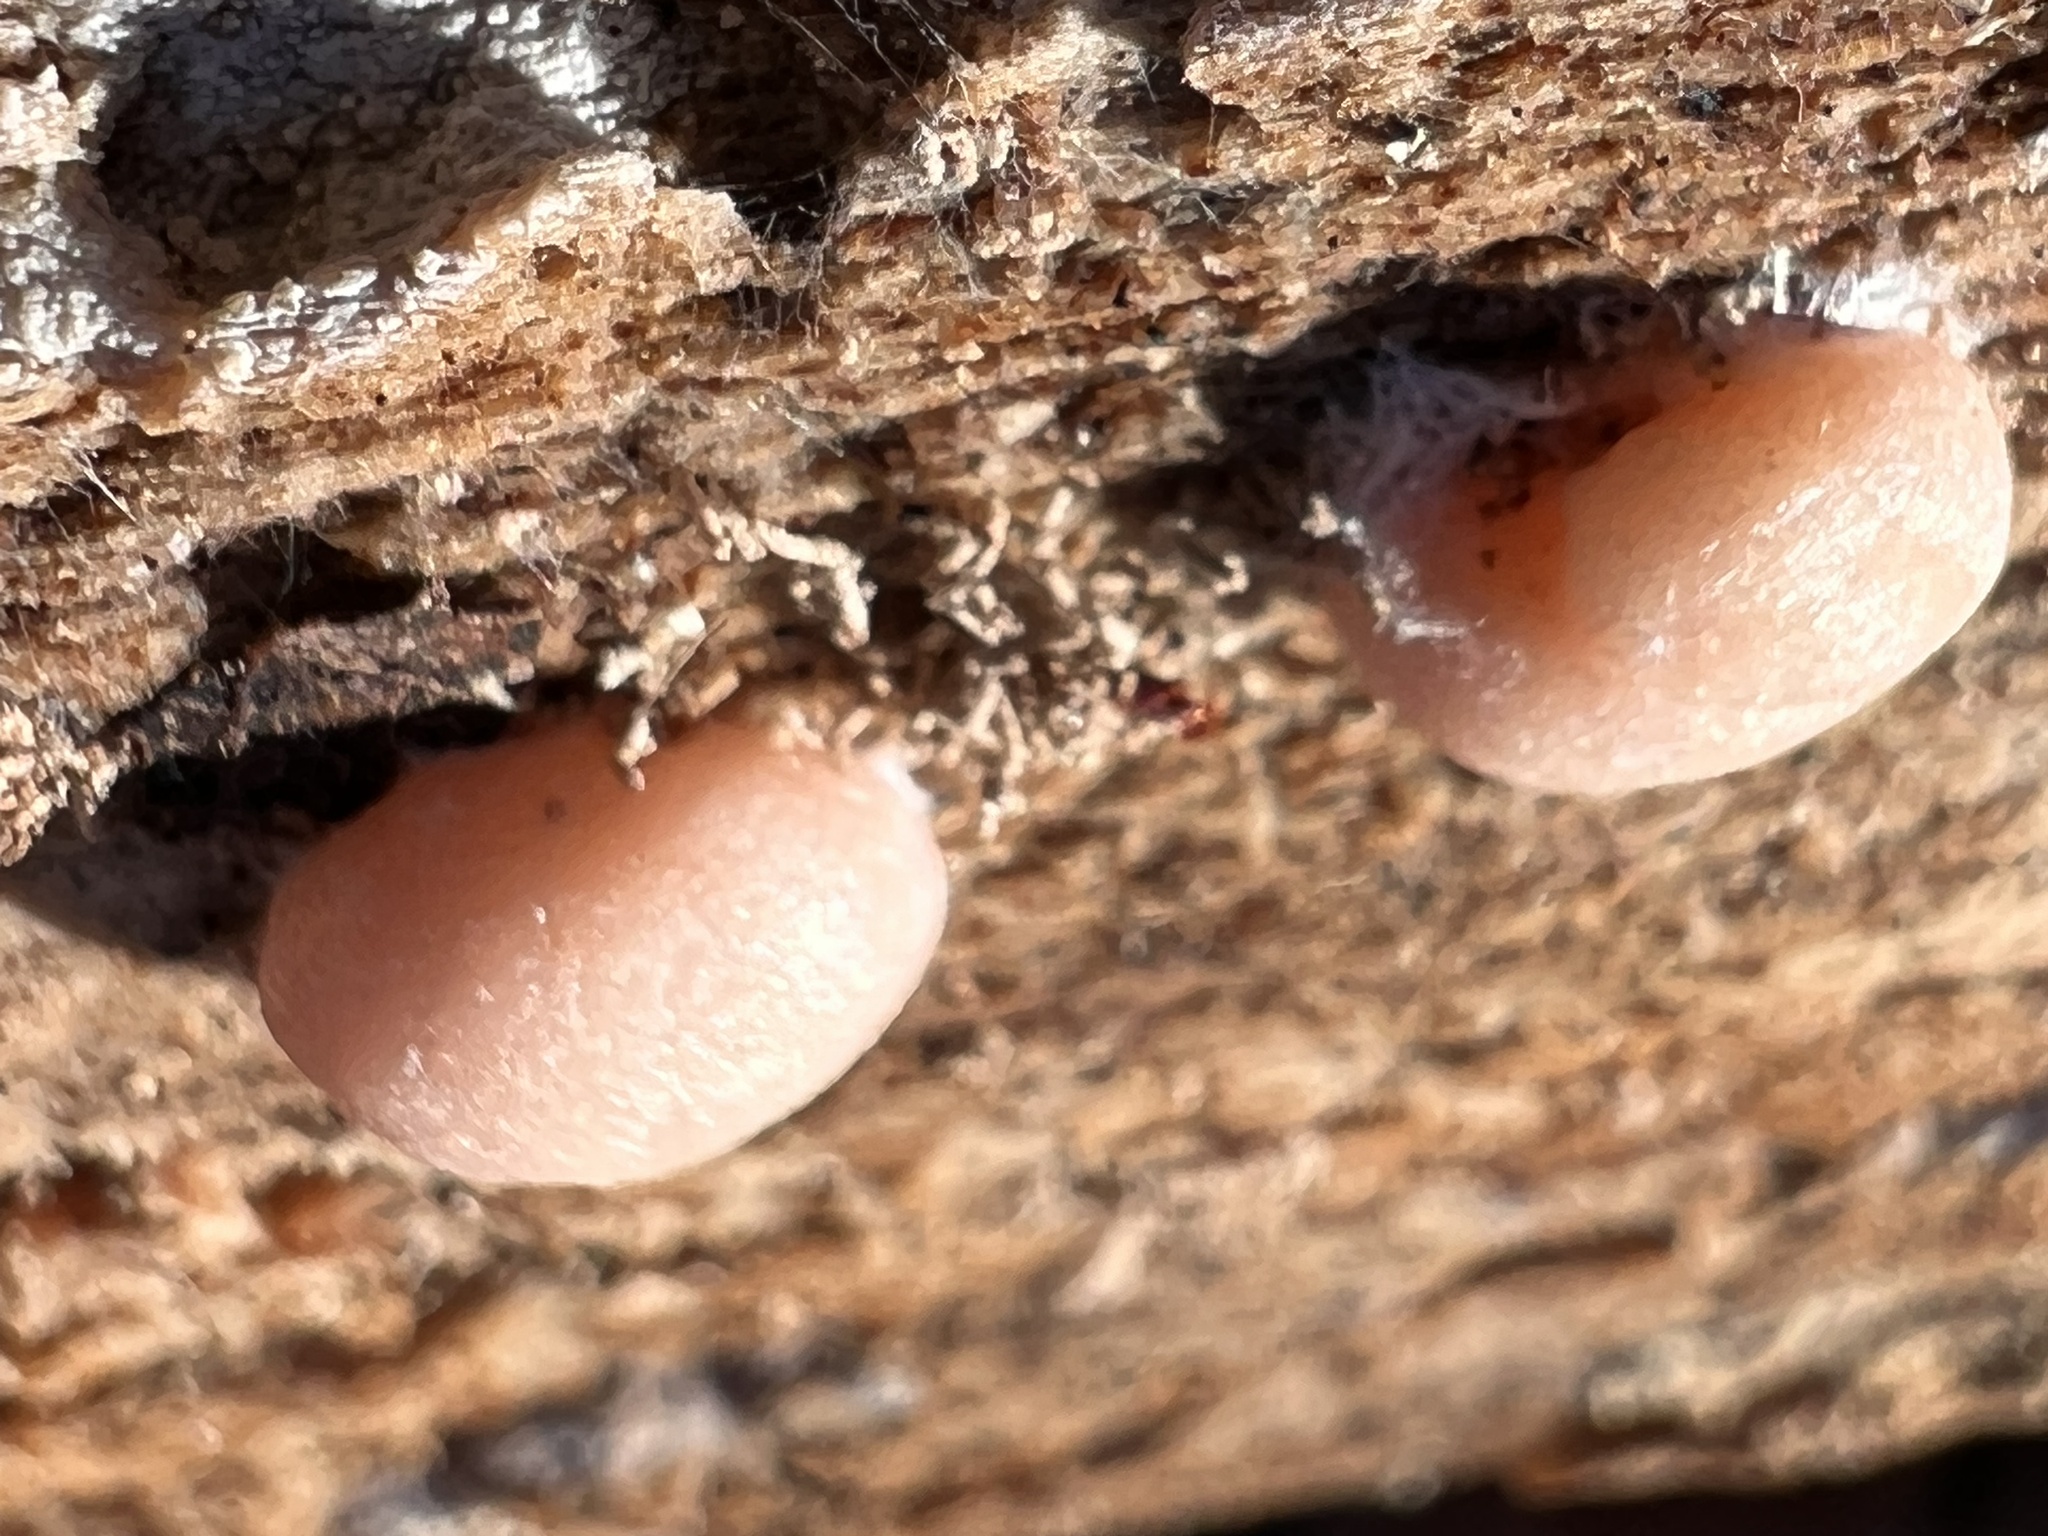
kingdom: Protozoa
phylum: Mycetozoa
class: Myxomycetes
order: Cribrariales
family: Tubiferaceae
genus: Lycogala
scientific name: Lycogala epidendrum
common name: Wolf's milk
